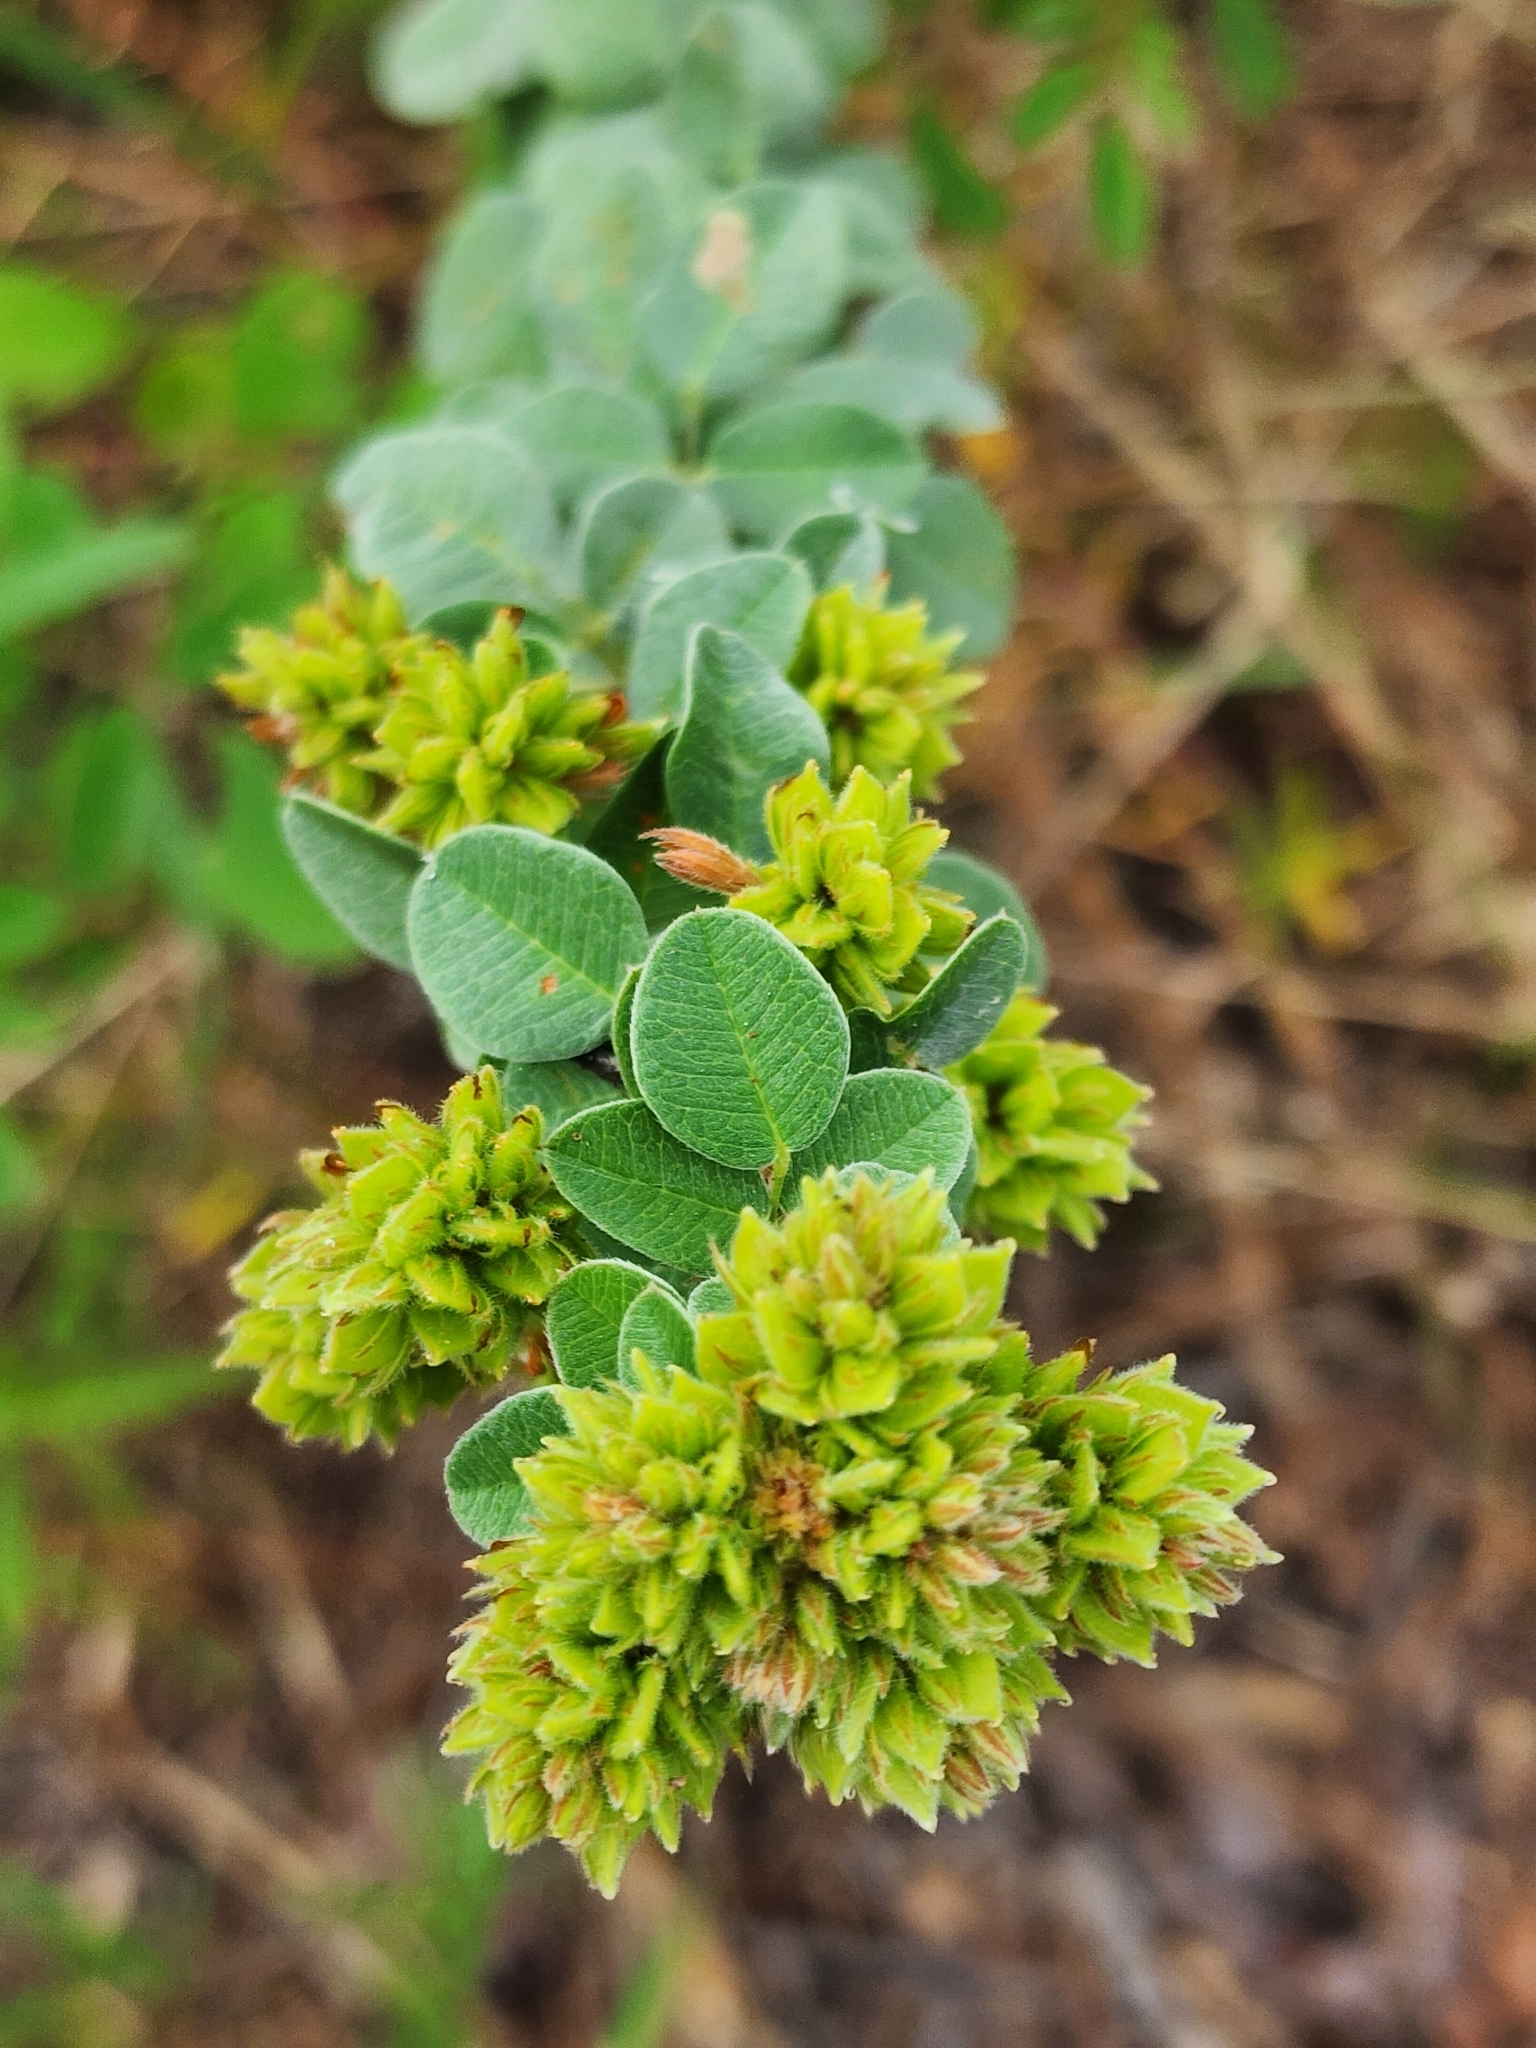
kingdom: Plantae
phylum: Tracheophyta
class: Magnoliopsida
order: Fabales
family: Fabaceae
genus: Lespedeza
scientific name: Lespedeza hirta
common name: Hairy lespedeza
